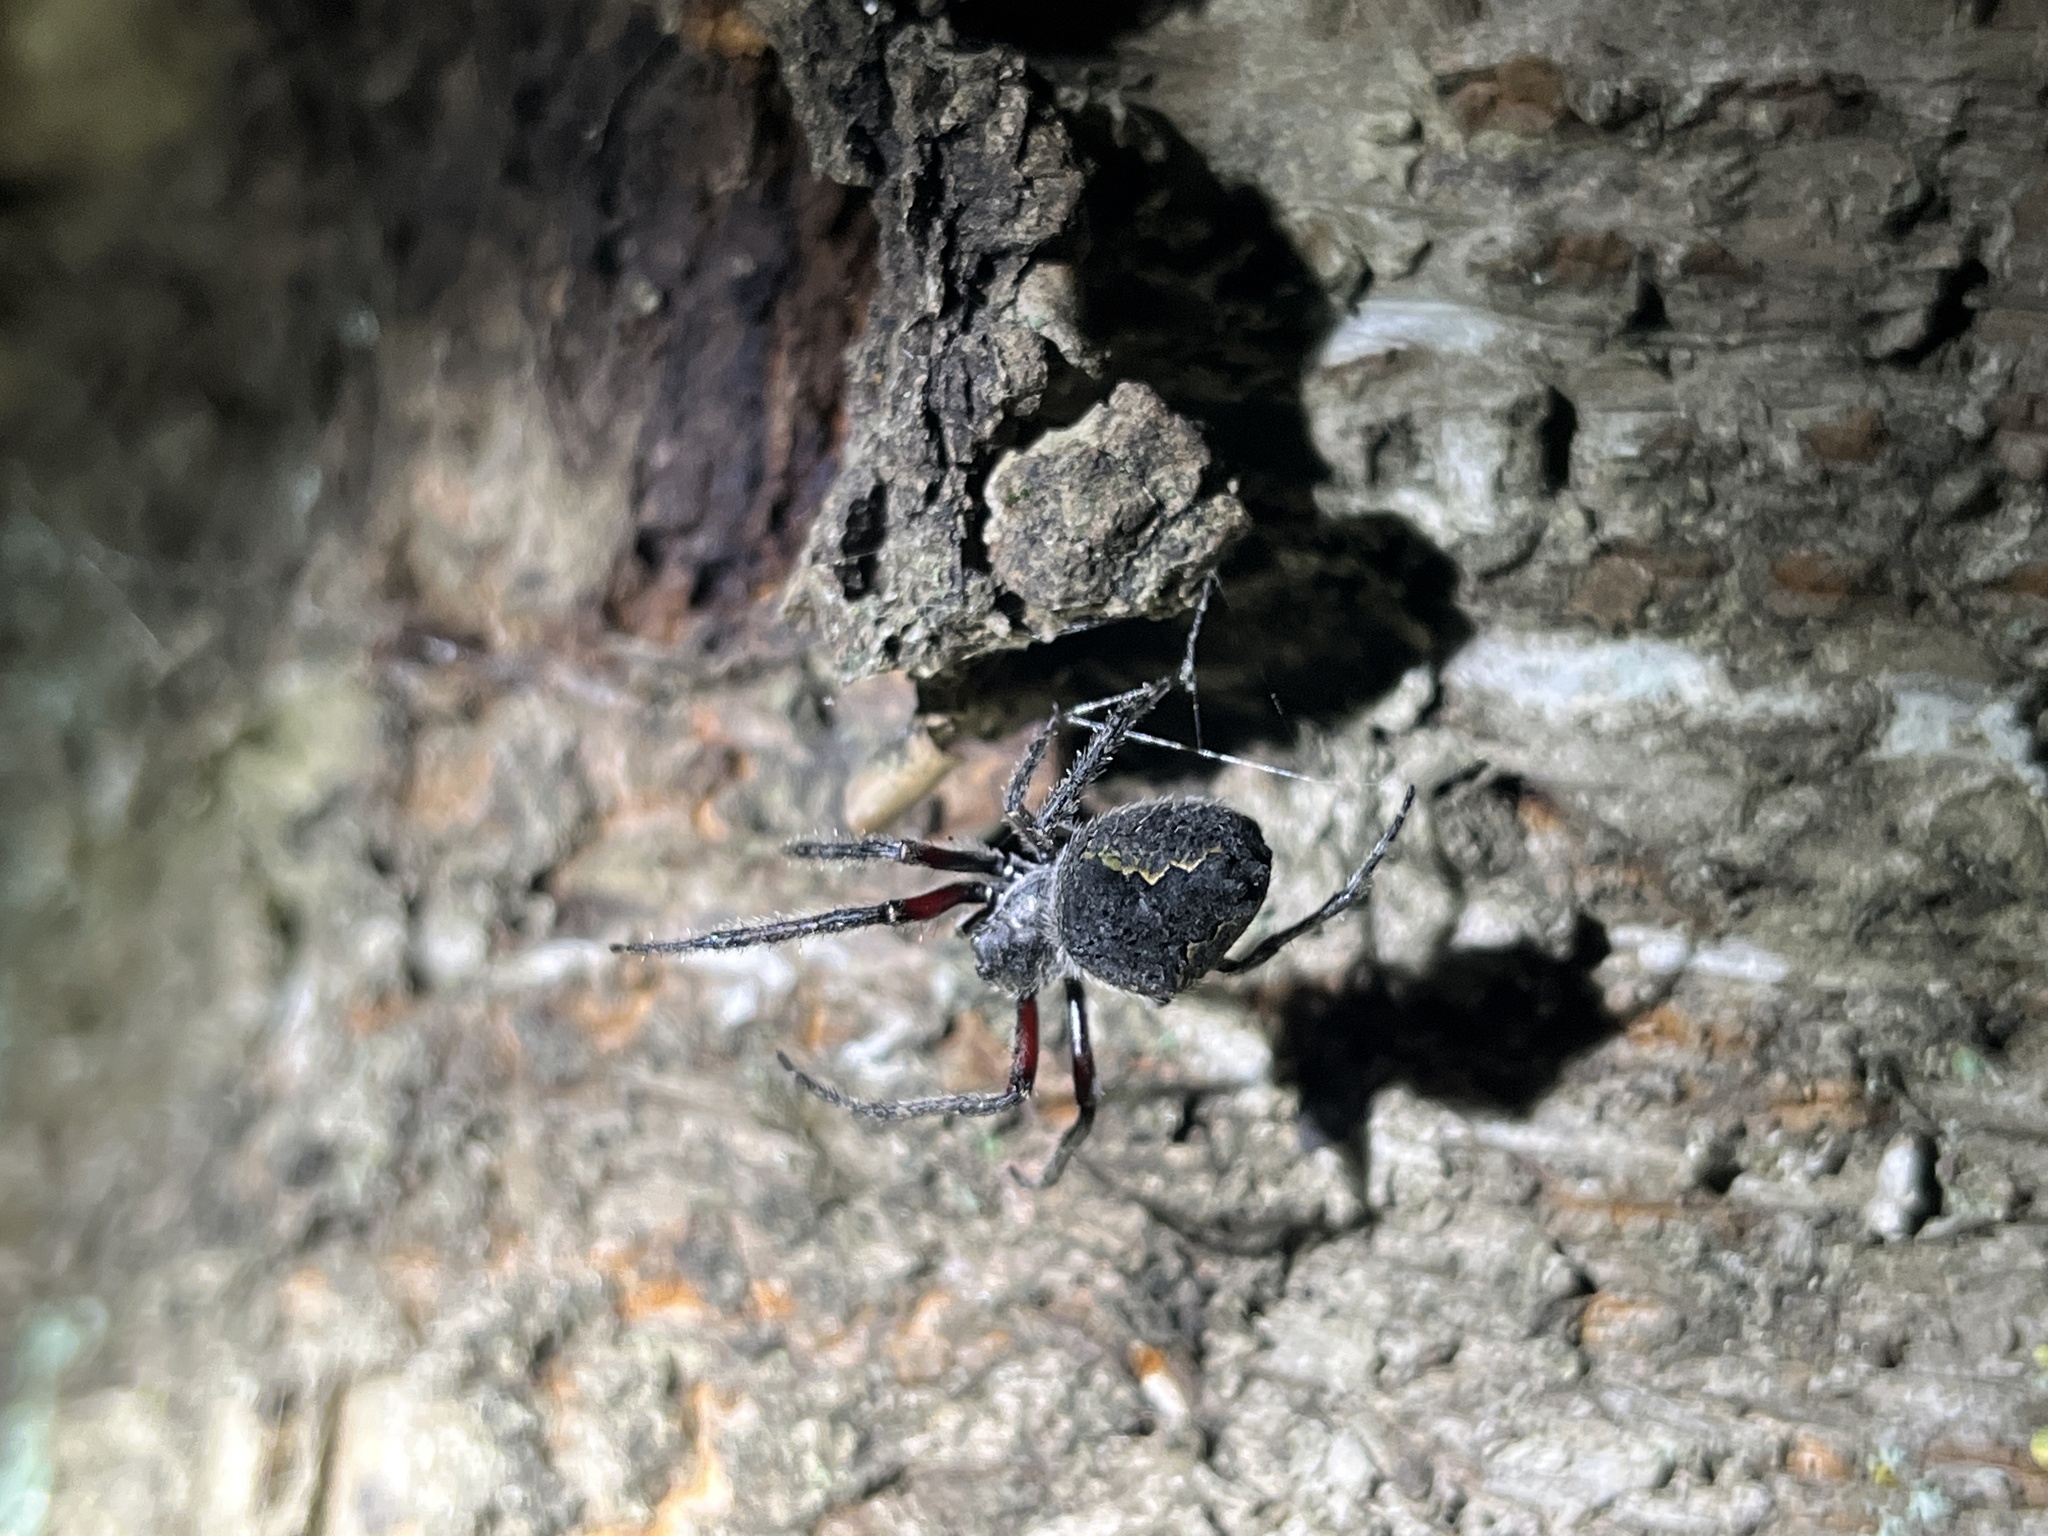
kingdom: Animalia
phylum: Arthropoda
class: Arachnida
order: Araneae
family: Araneidae
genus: Eriophora
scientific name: Eriophora pustulosa
